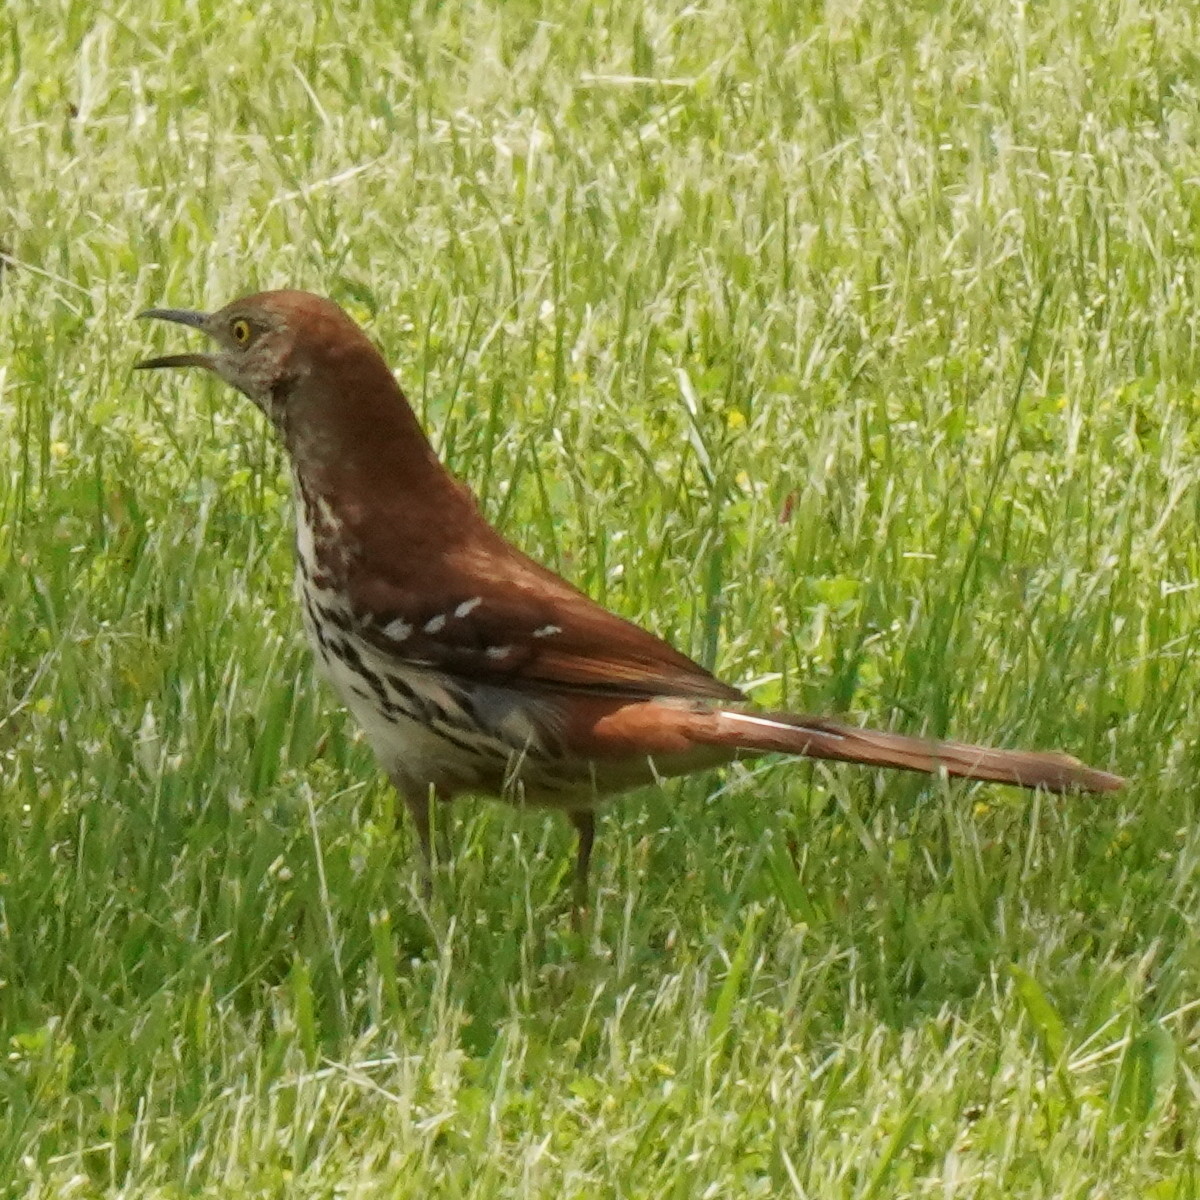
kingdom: Animalia
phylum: Chordata
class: Aves
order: Passeriformes
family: Mimidae
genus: Toxostoma
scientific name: Toxostoma rufum
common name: Brown thrasher
